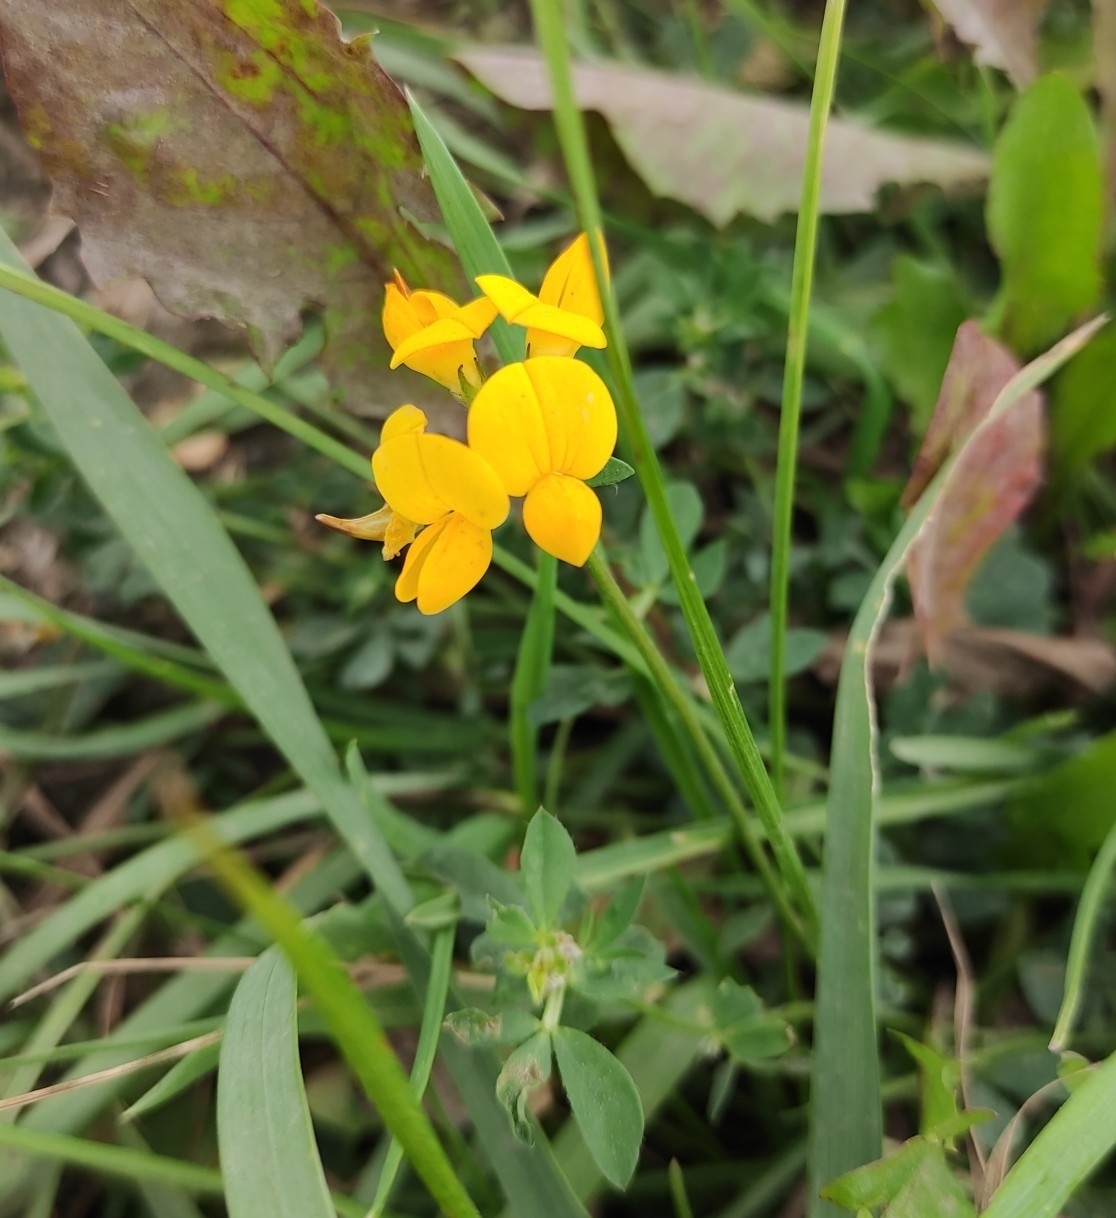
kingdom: Plantae
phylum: Tracheophyta
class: Magnoliopsida
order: Fabales
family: Fabaceae
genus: Lotus
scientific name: Lotus corniculatus
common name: Common bird's-foot-trefoil
